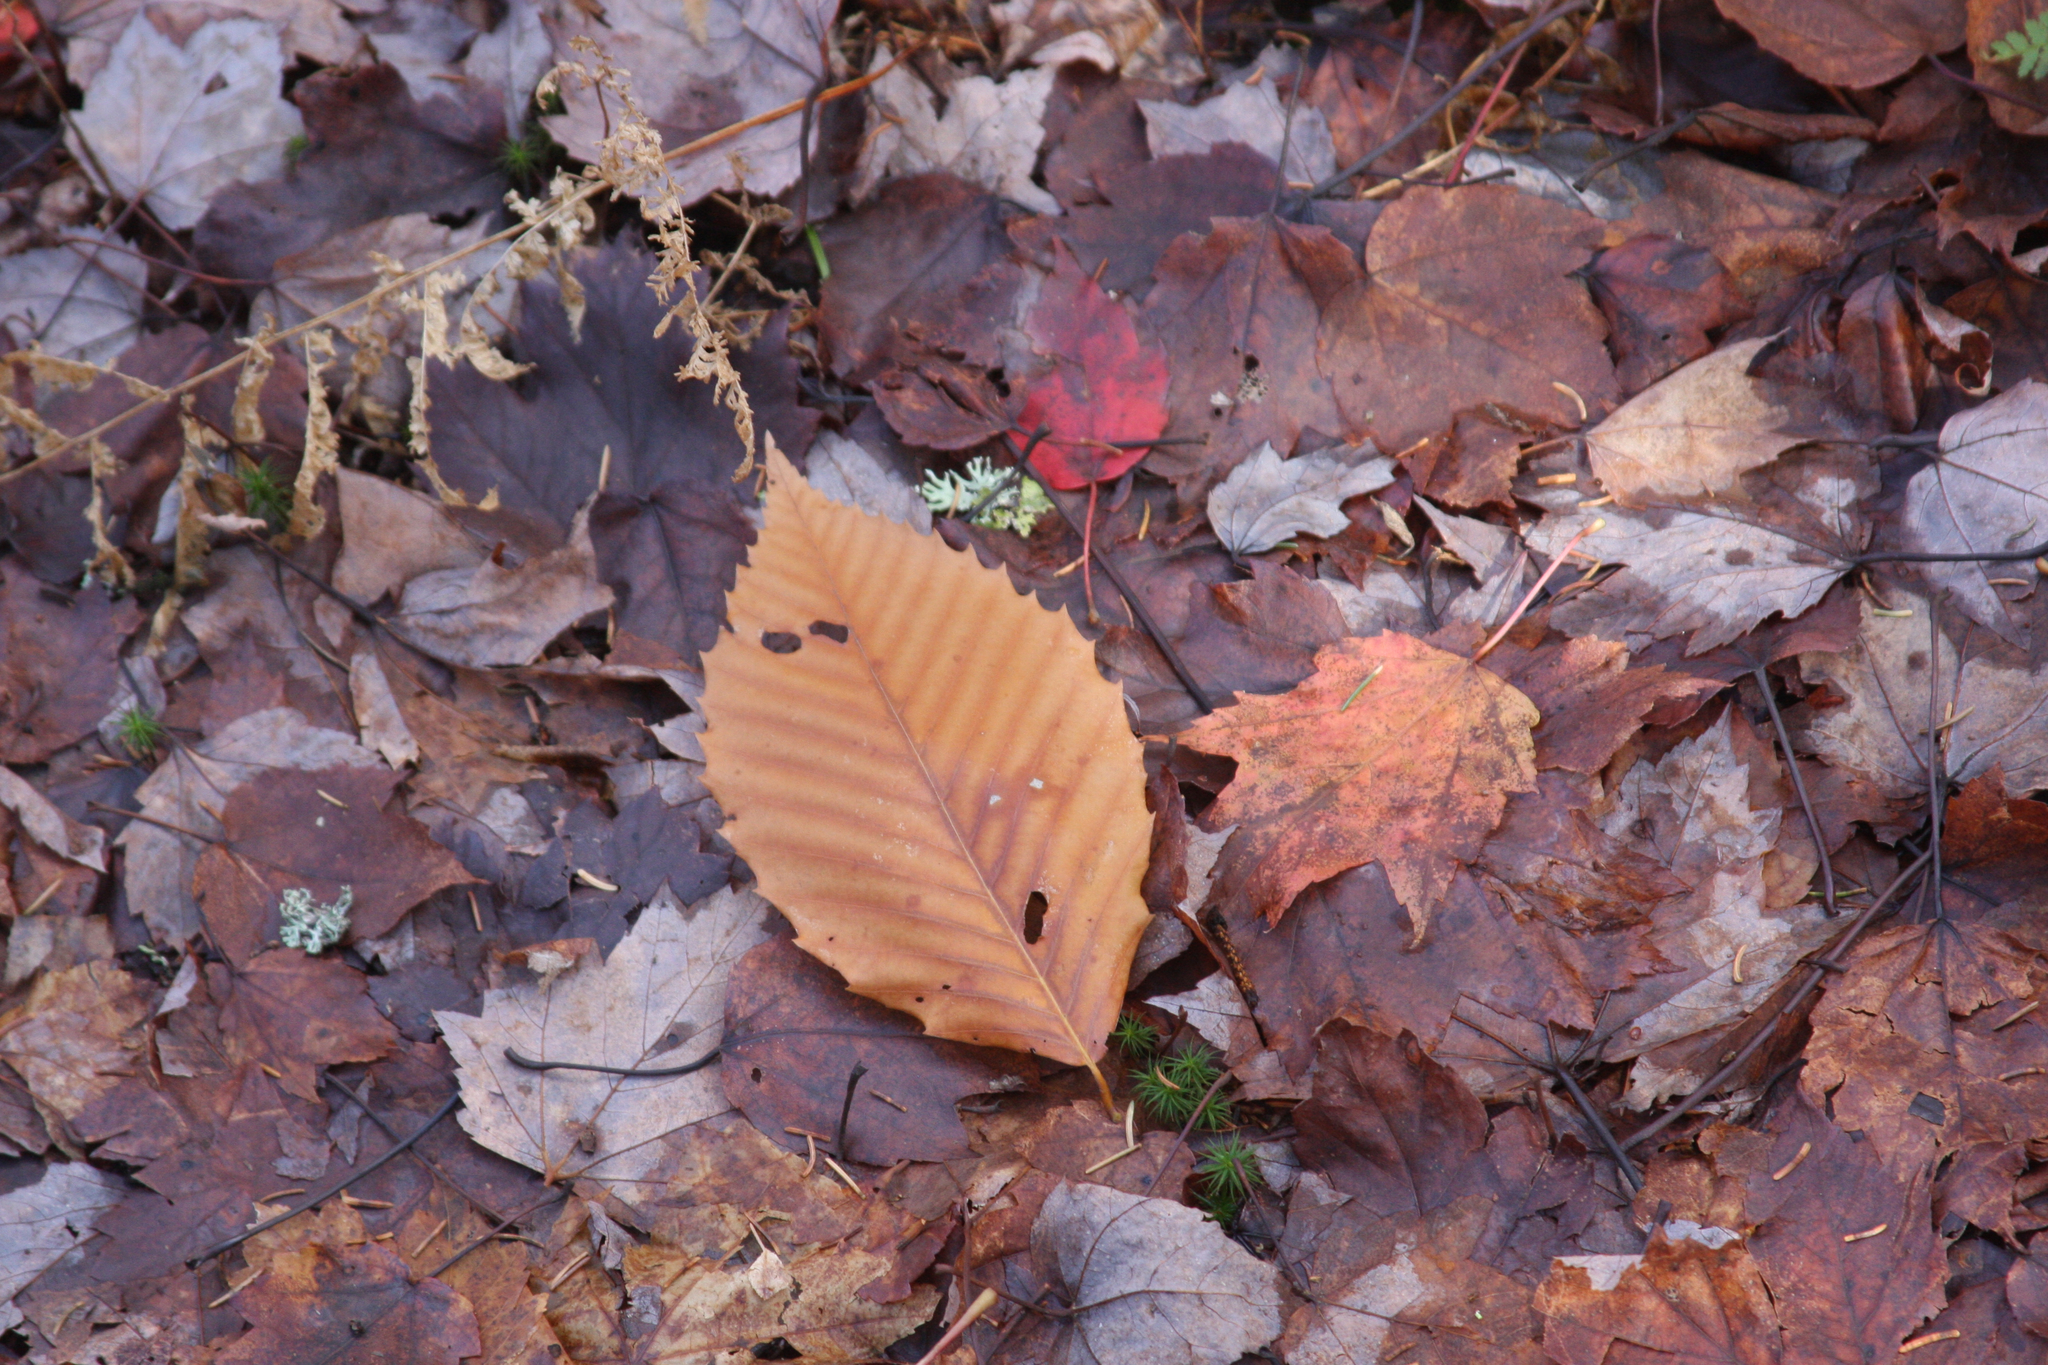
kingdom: Plantae
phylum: Tracheophyta
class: Magnoliopsida
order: Fagales
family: Fagaceae
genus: Fagus
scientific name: Fagus grandifolia
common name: American beech
